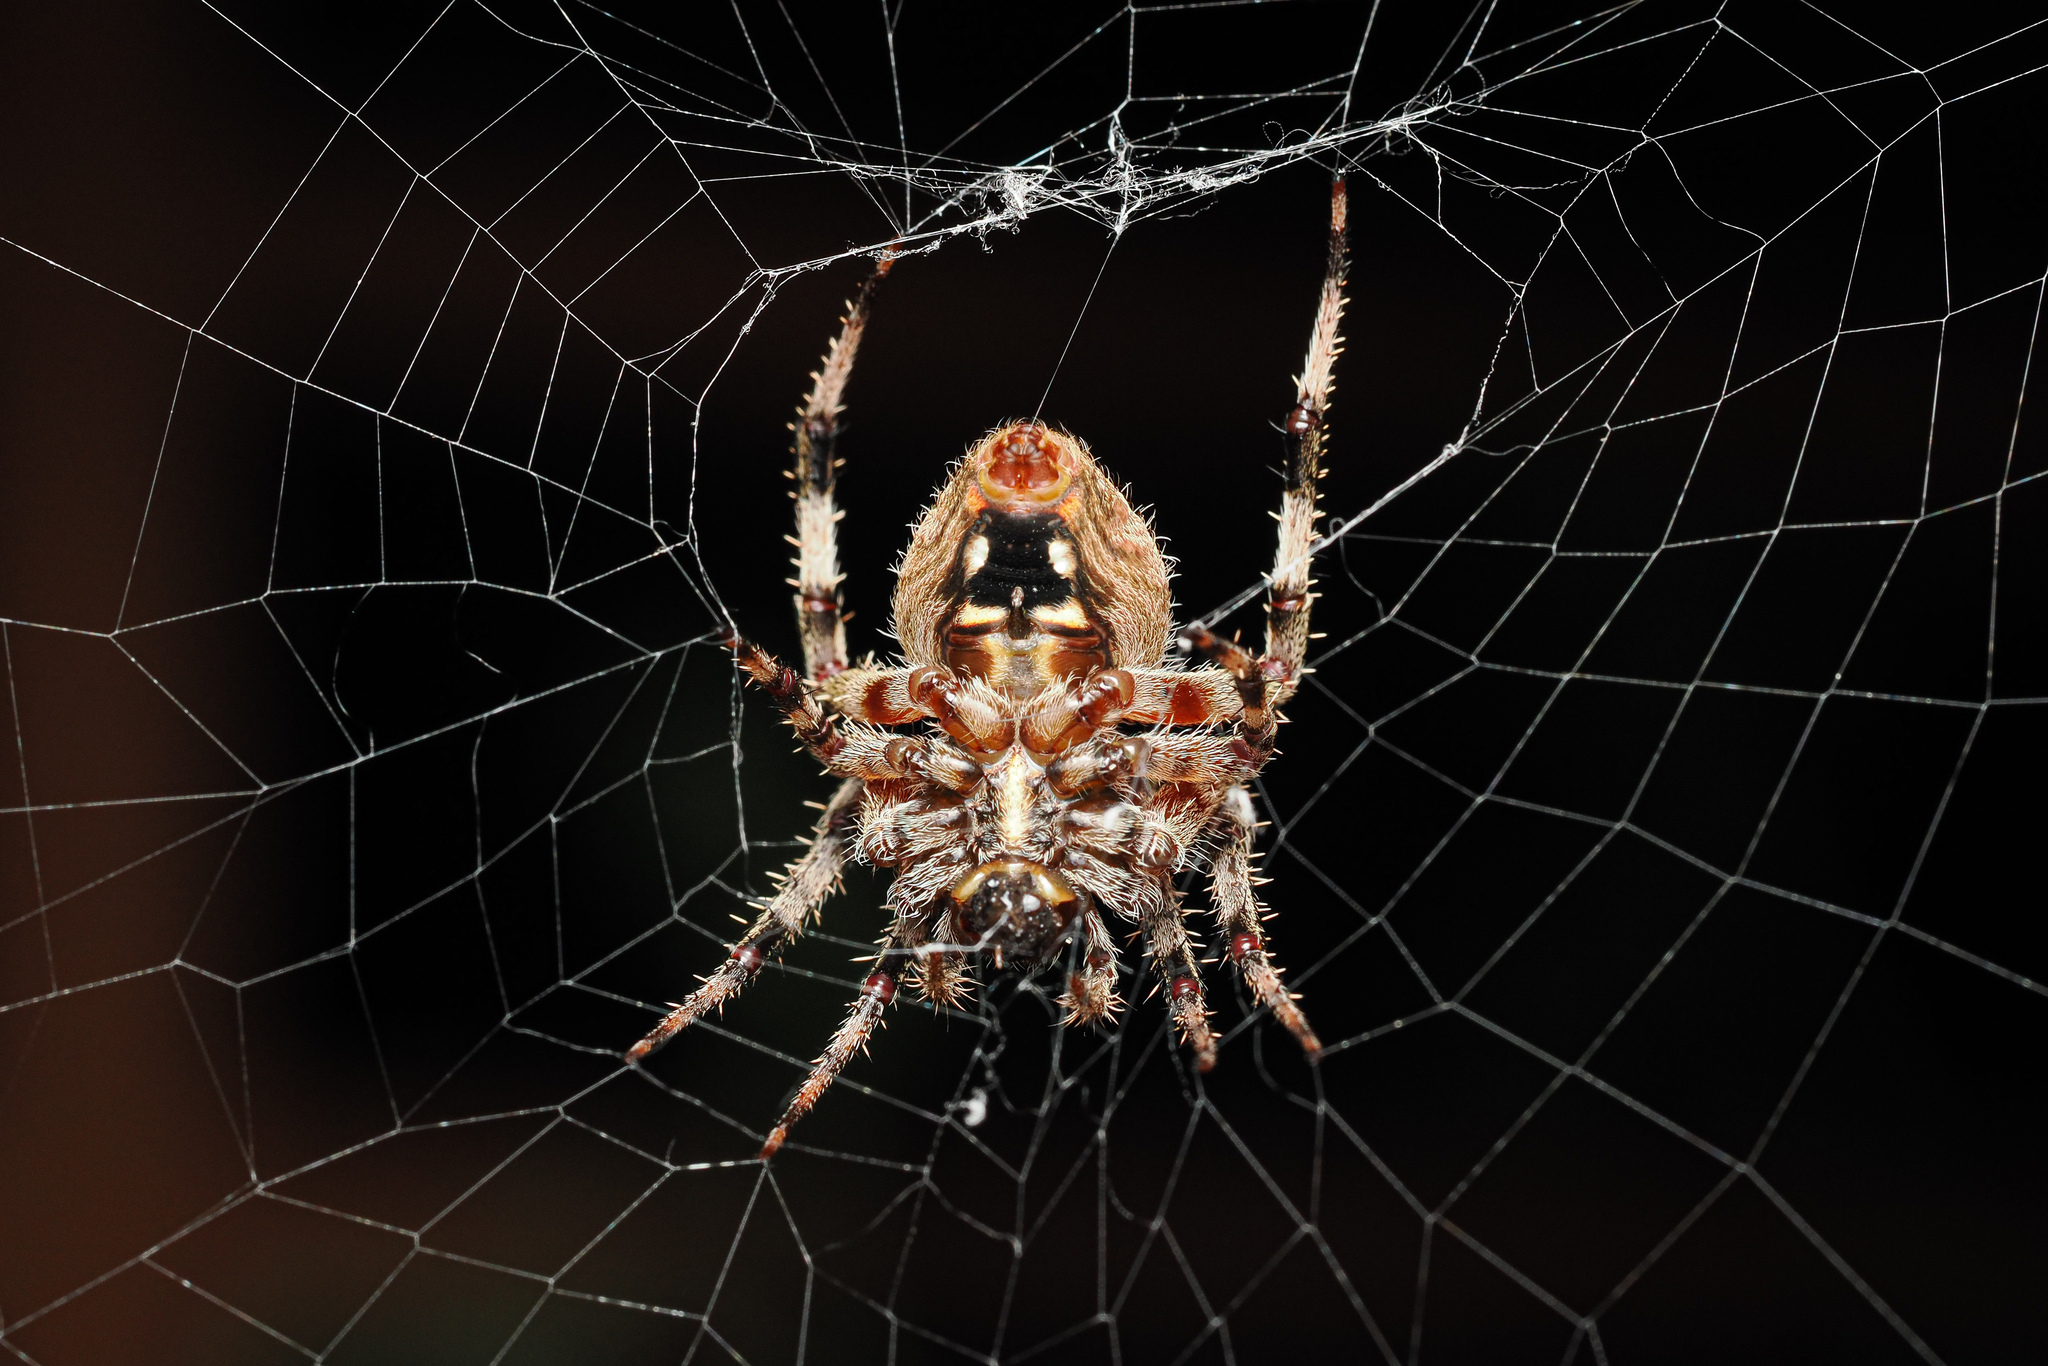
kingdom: Animalia
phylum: Arthropoda
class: Arachnida
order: Araneae
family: Araneidae
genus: Neoscona
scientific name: Neoscona crucifera
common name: Spotted orbweaver
